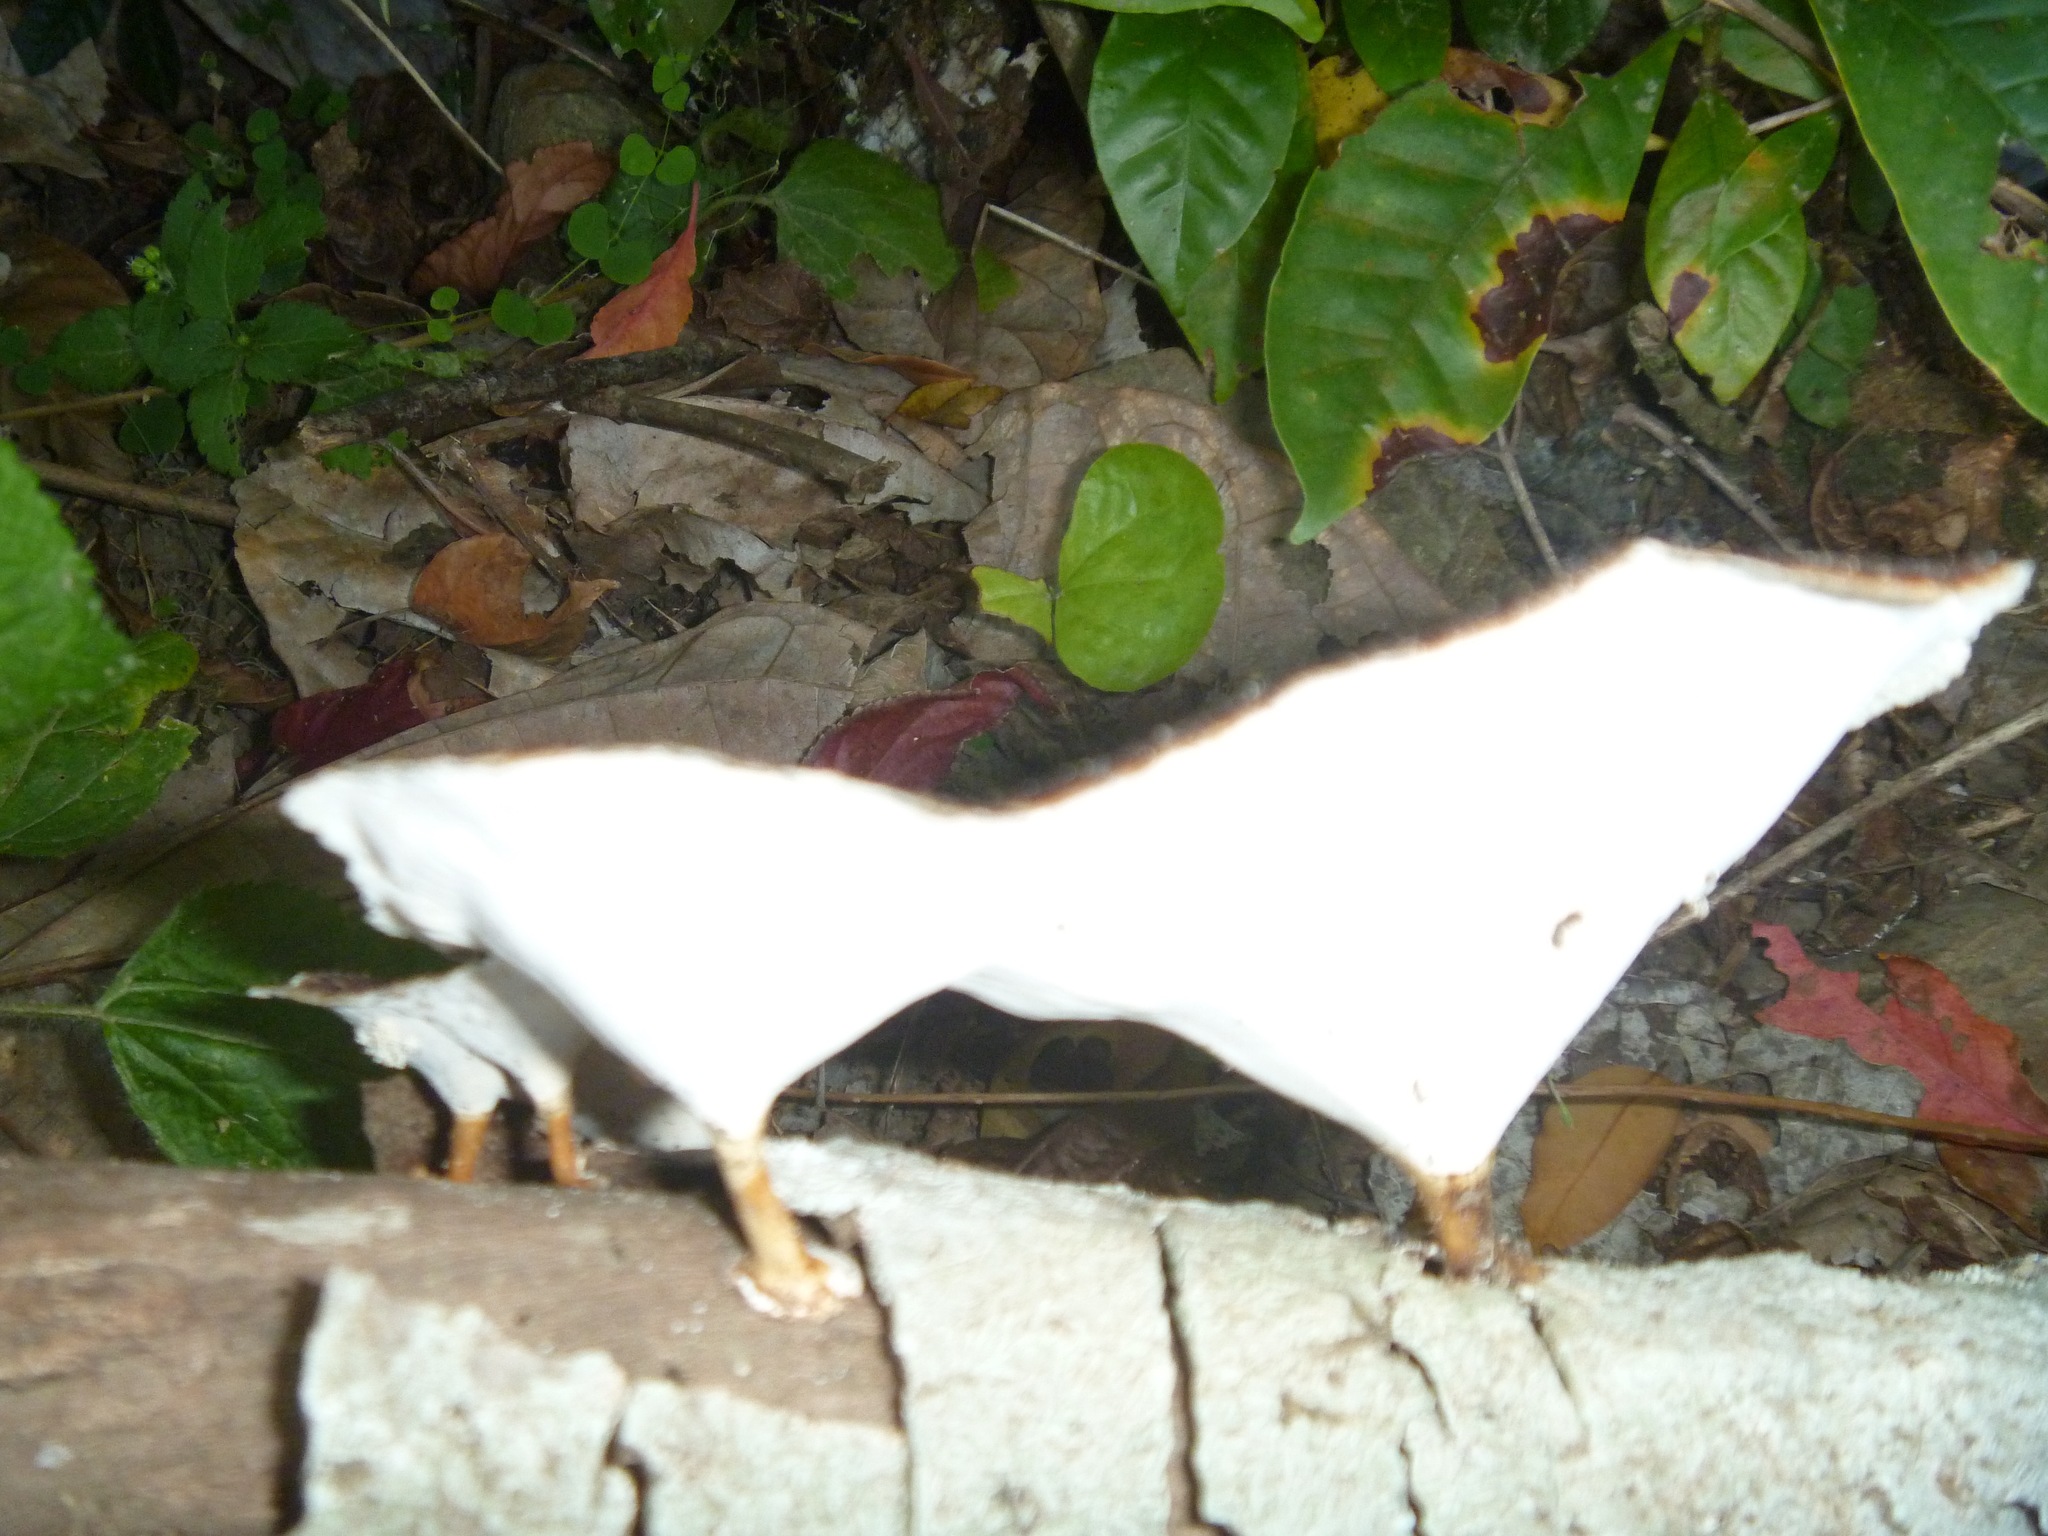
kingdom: Fungi
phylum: Basidiomycota
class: Agaricomycetes
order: Polyporales
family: Polyporaceae
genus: Microporus
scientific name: Microporus xanthopus
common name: Yellow-stemmed micropore
